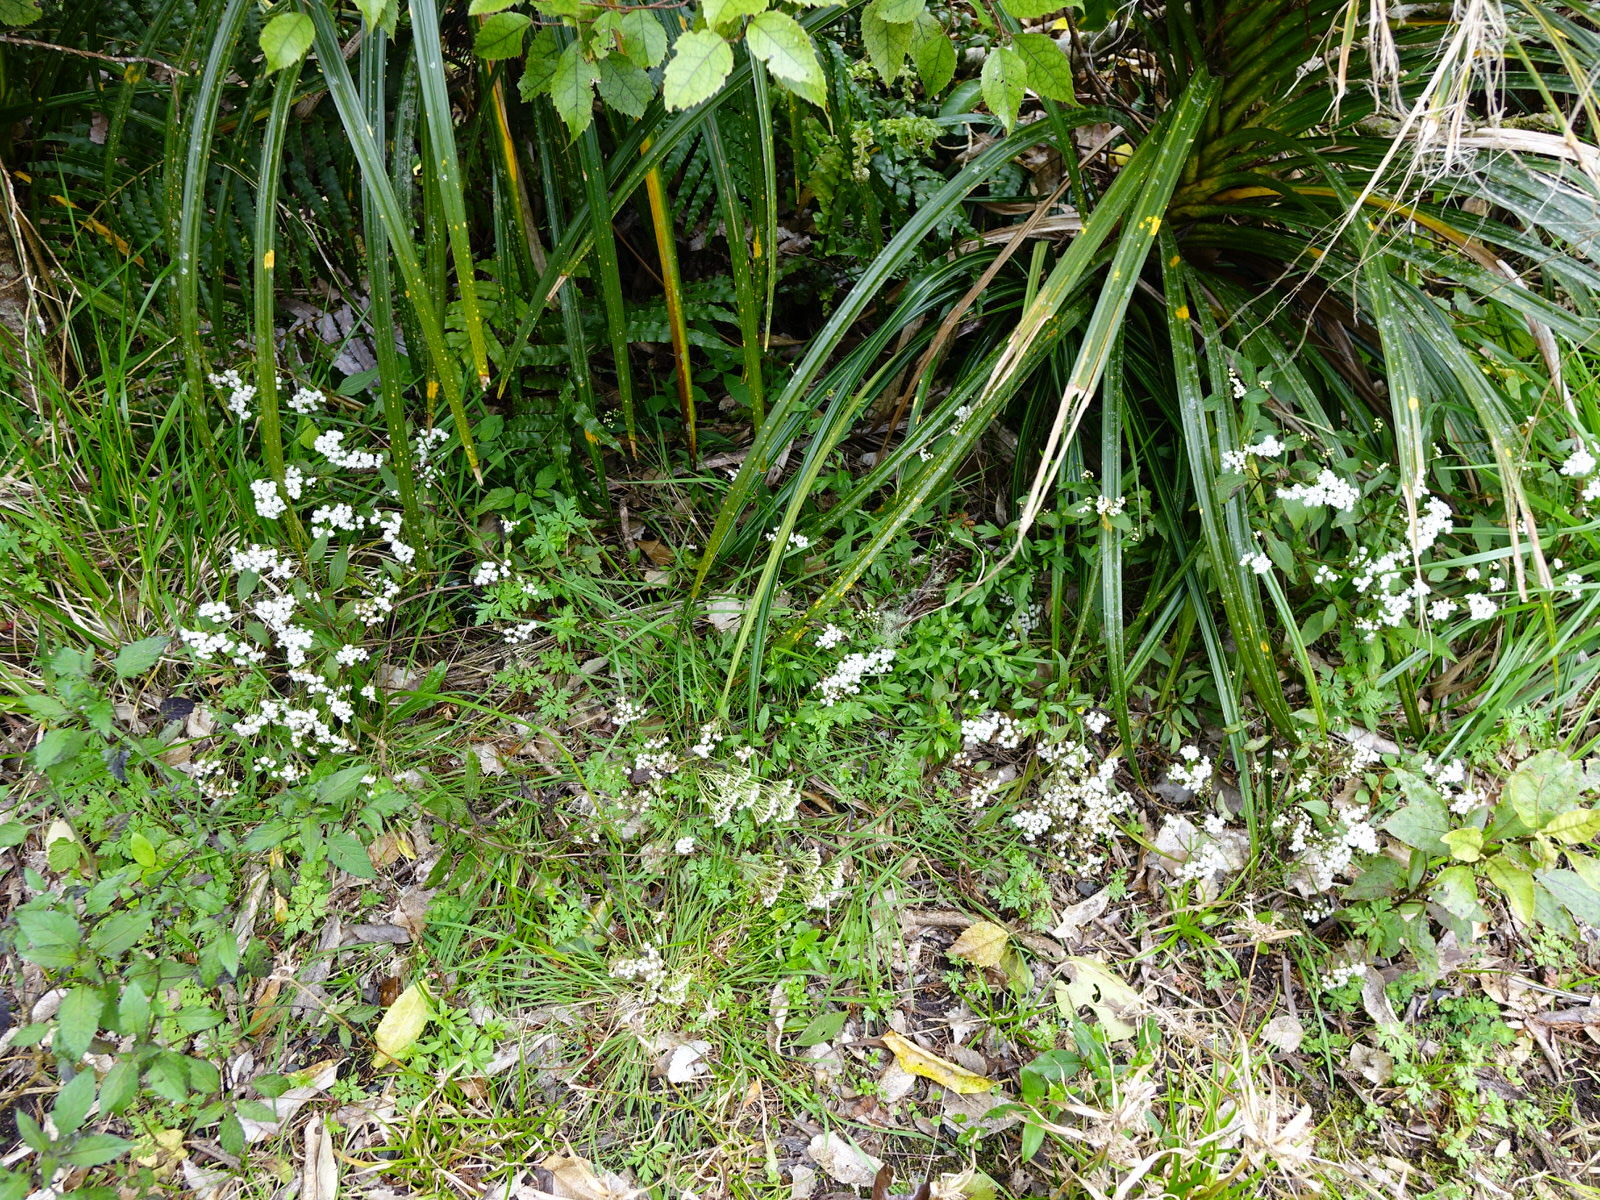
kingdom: Animalia
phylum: Arthropoda
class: Insecta
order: Diptera
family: Tephritidae
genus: Procecidochares
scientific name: Procecidochares alani
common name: Fruit fly
